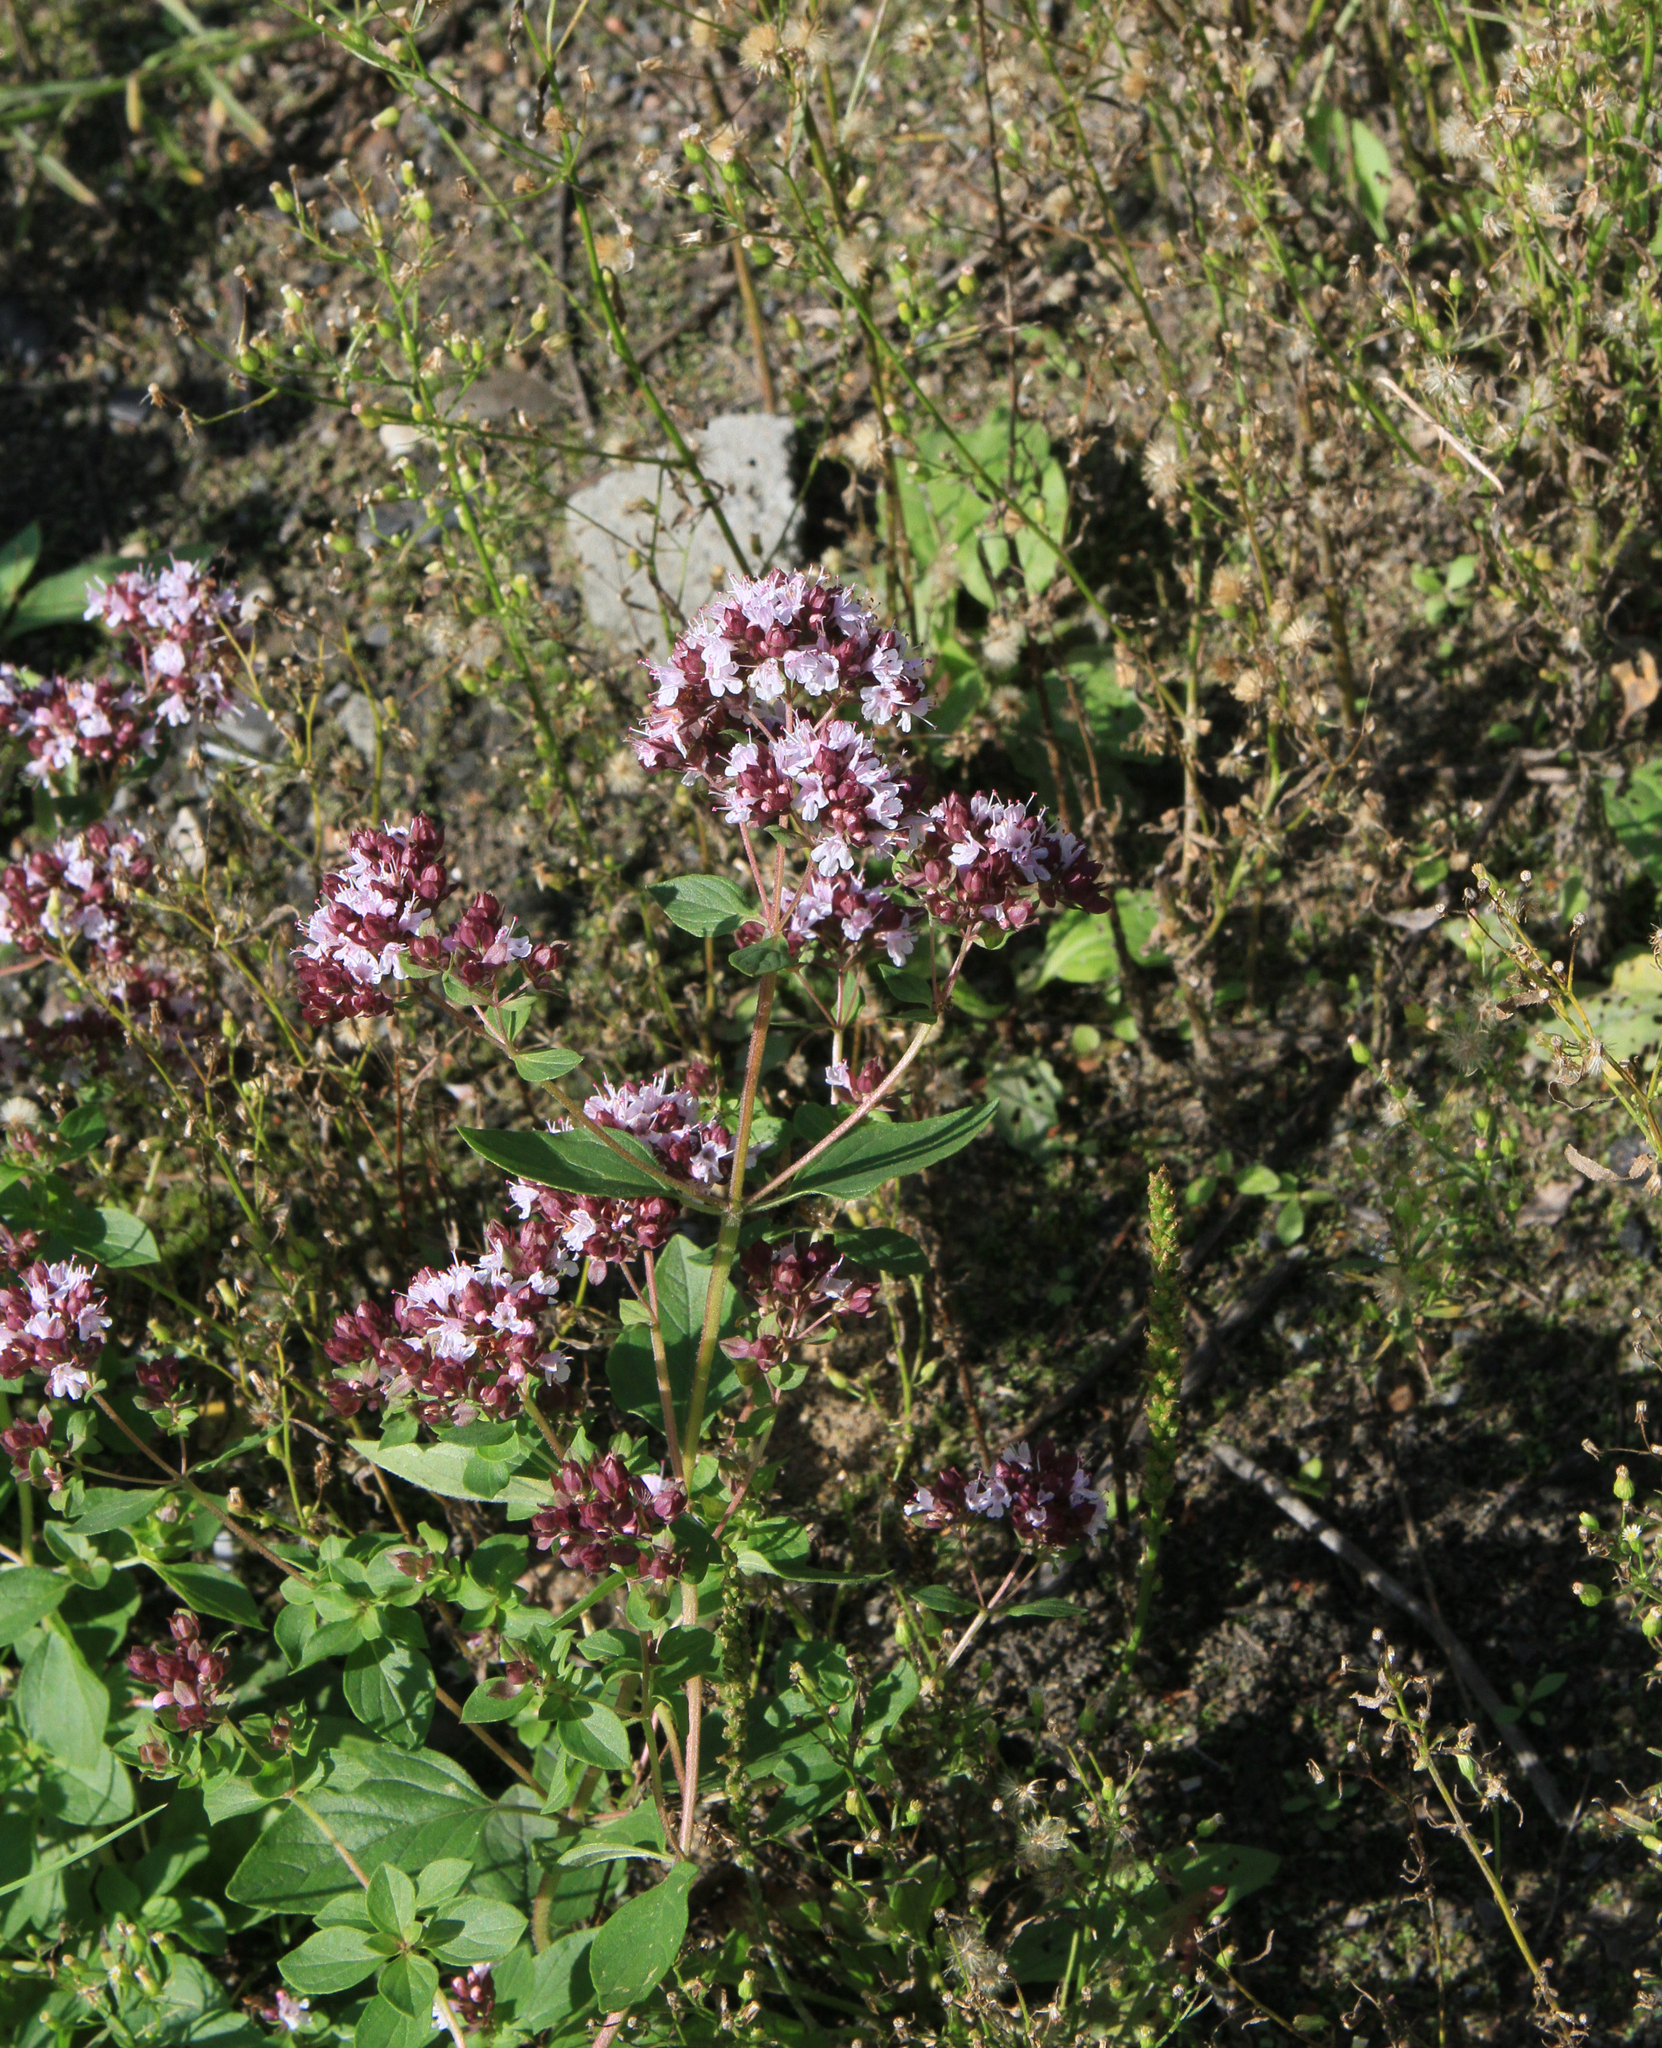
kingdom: Plantae
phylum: Tracheophyta
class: Magnoliopsida
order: Lamiales
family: Lamiaceae
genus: Origanum
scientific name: Origanum vulgare
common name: Wild marjoram
